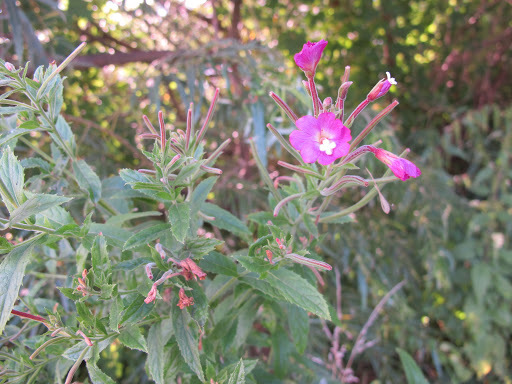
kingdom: Plantae
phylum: Tracheophyta
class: Magnoliopsida
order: Myrtales
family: Onagraceae
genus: Epilobium
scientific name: Epilobium hirsutum
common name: Great willowherb
